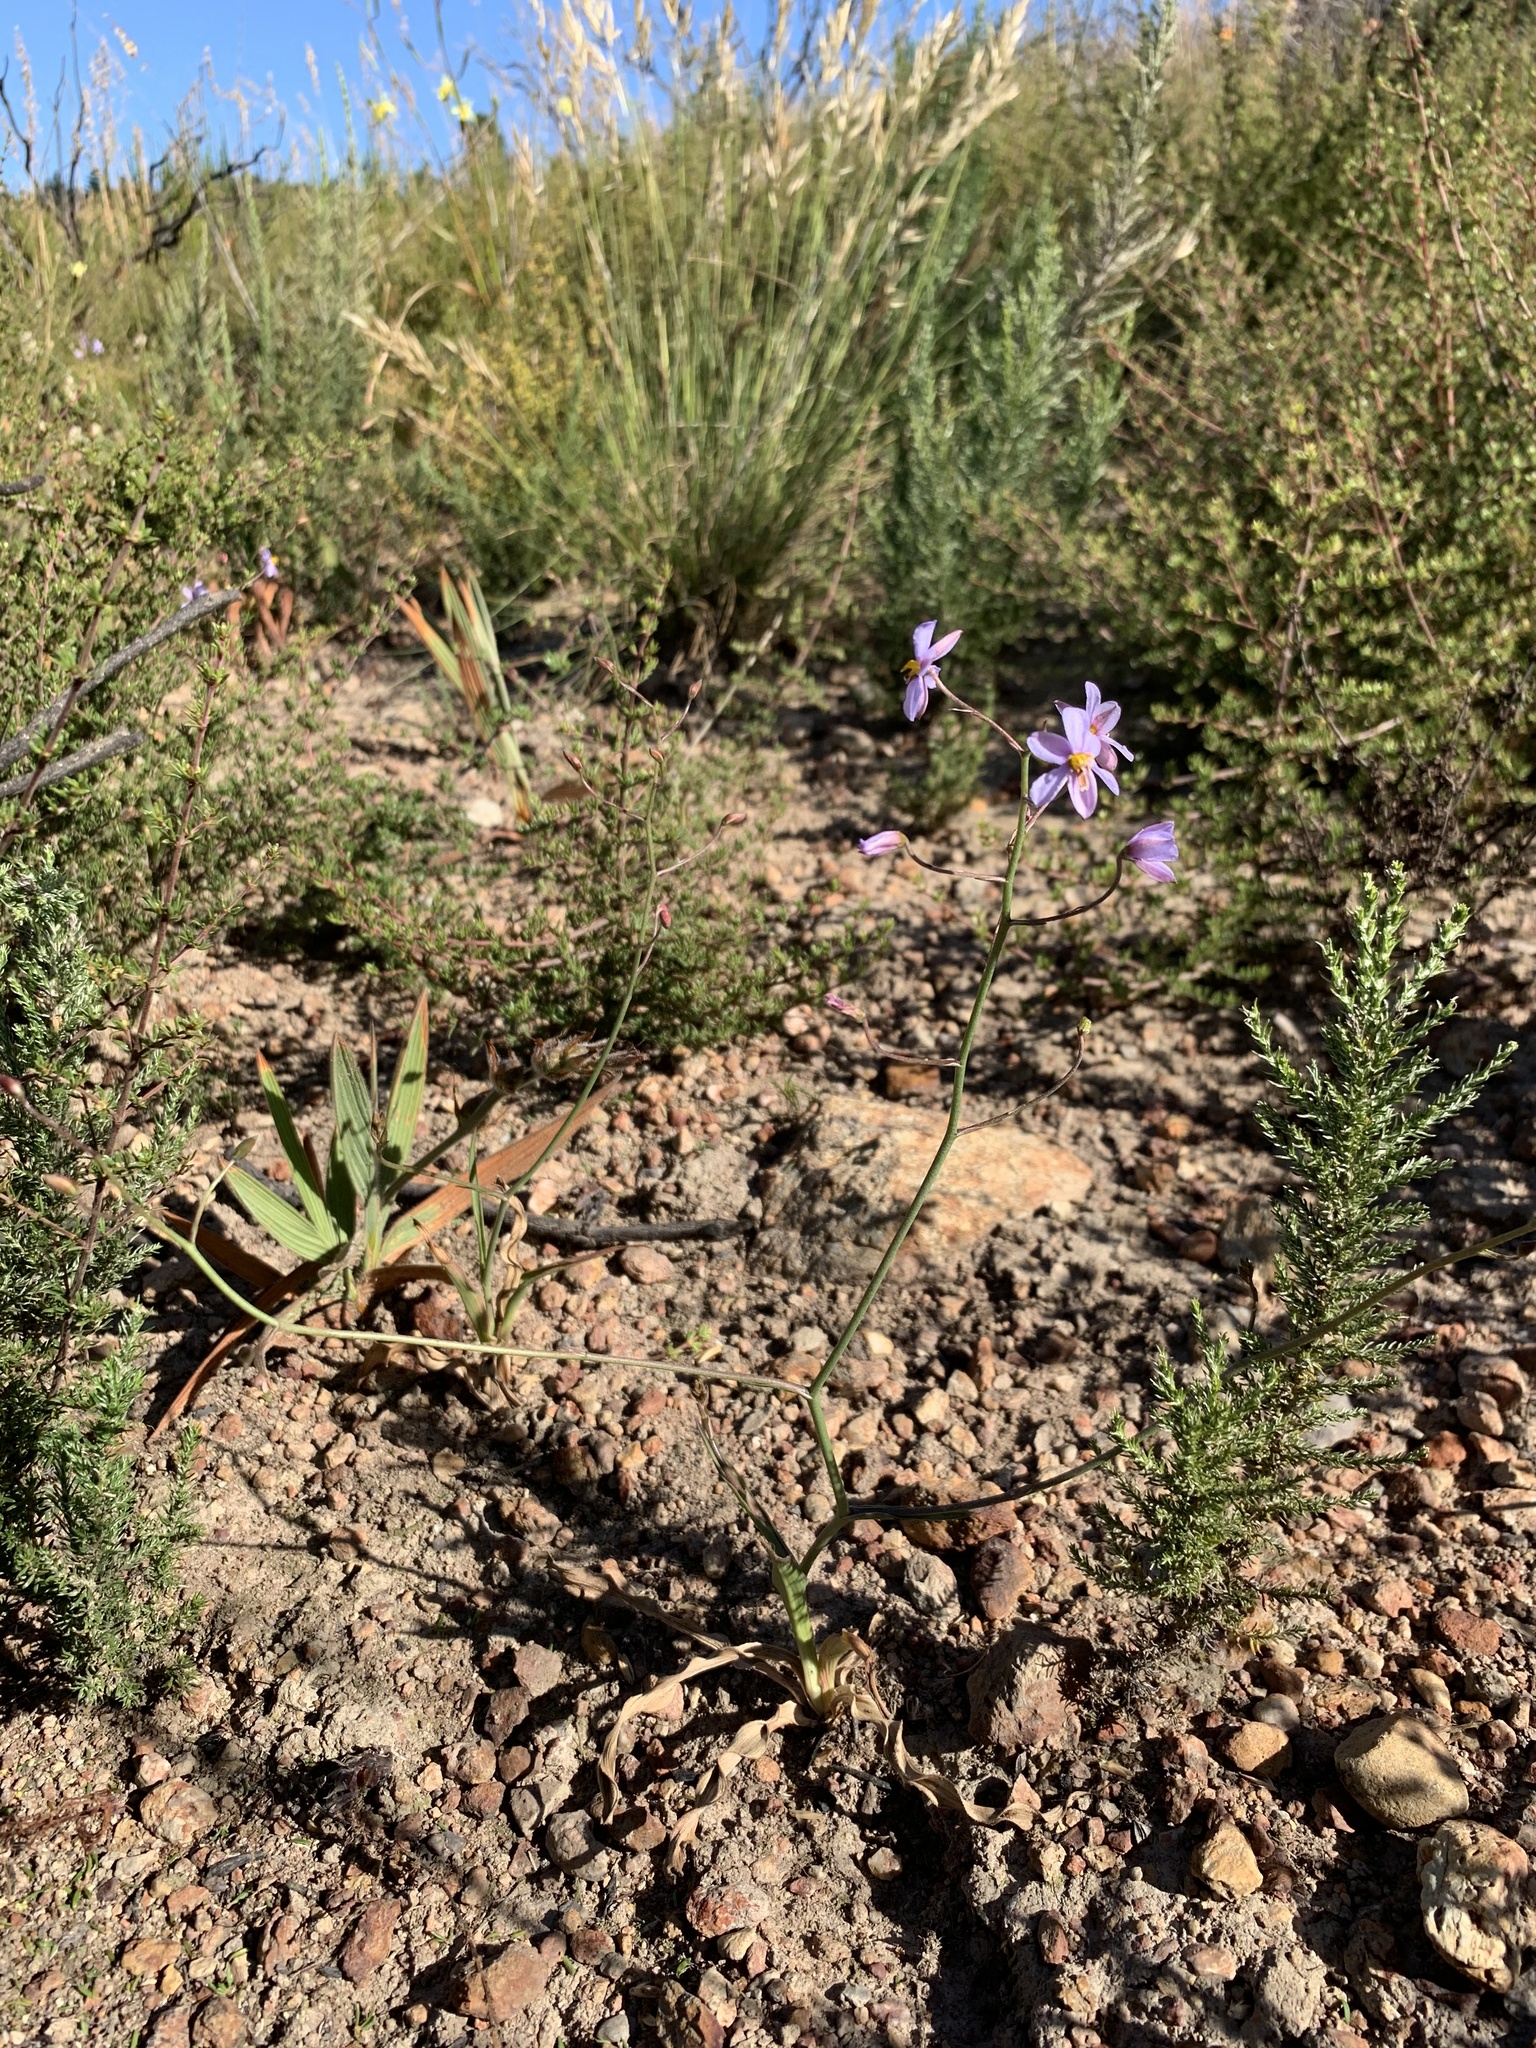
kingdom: Plantae
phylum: Tracheophyta
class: Liliopsida
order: Asparagales
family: Tecophilaeaceae
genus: Cyanella
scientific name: Cyanella hyacinthoides
